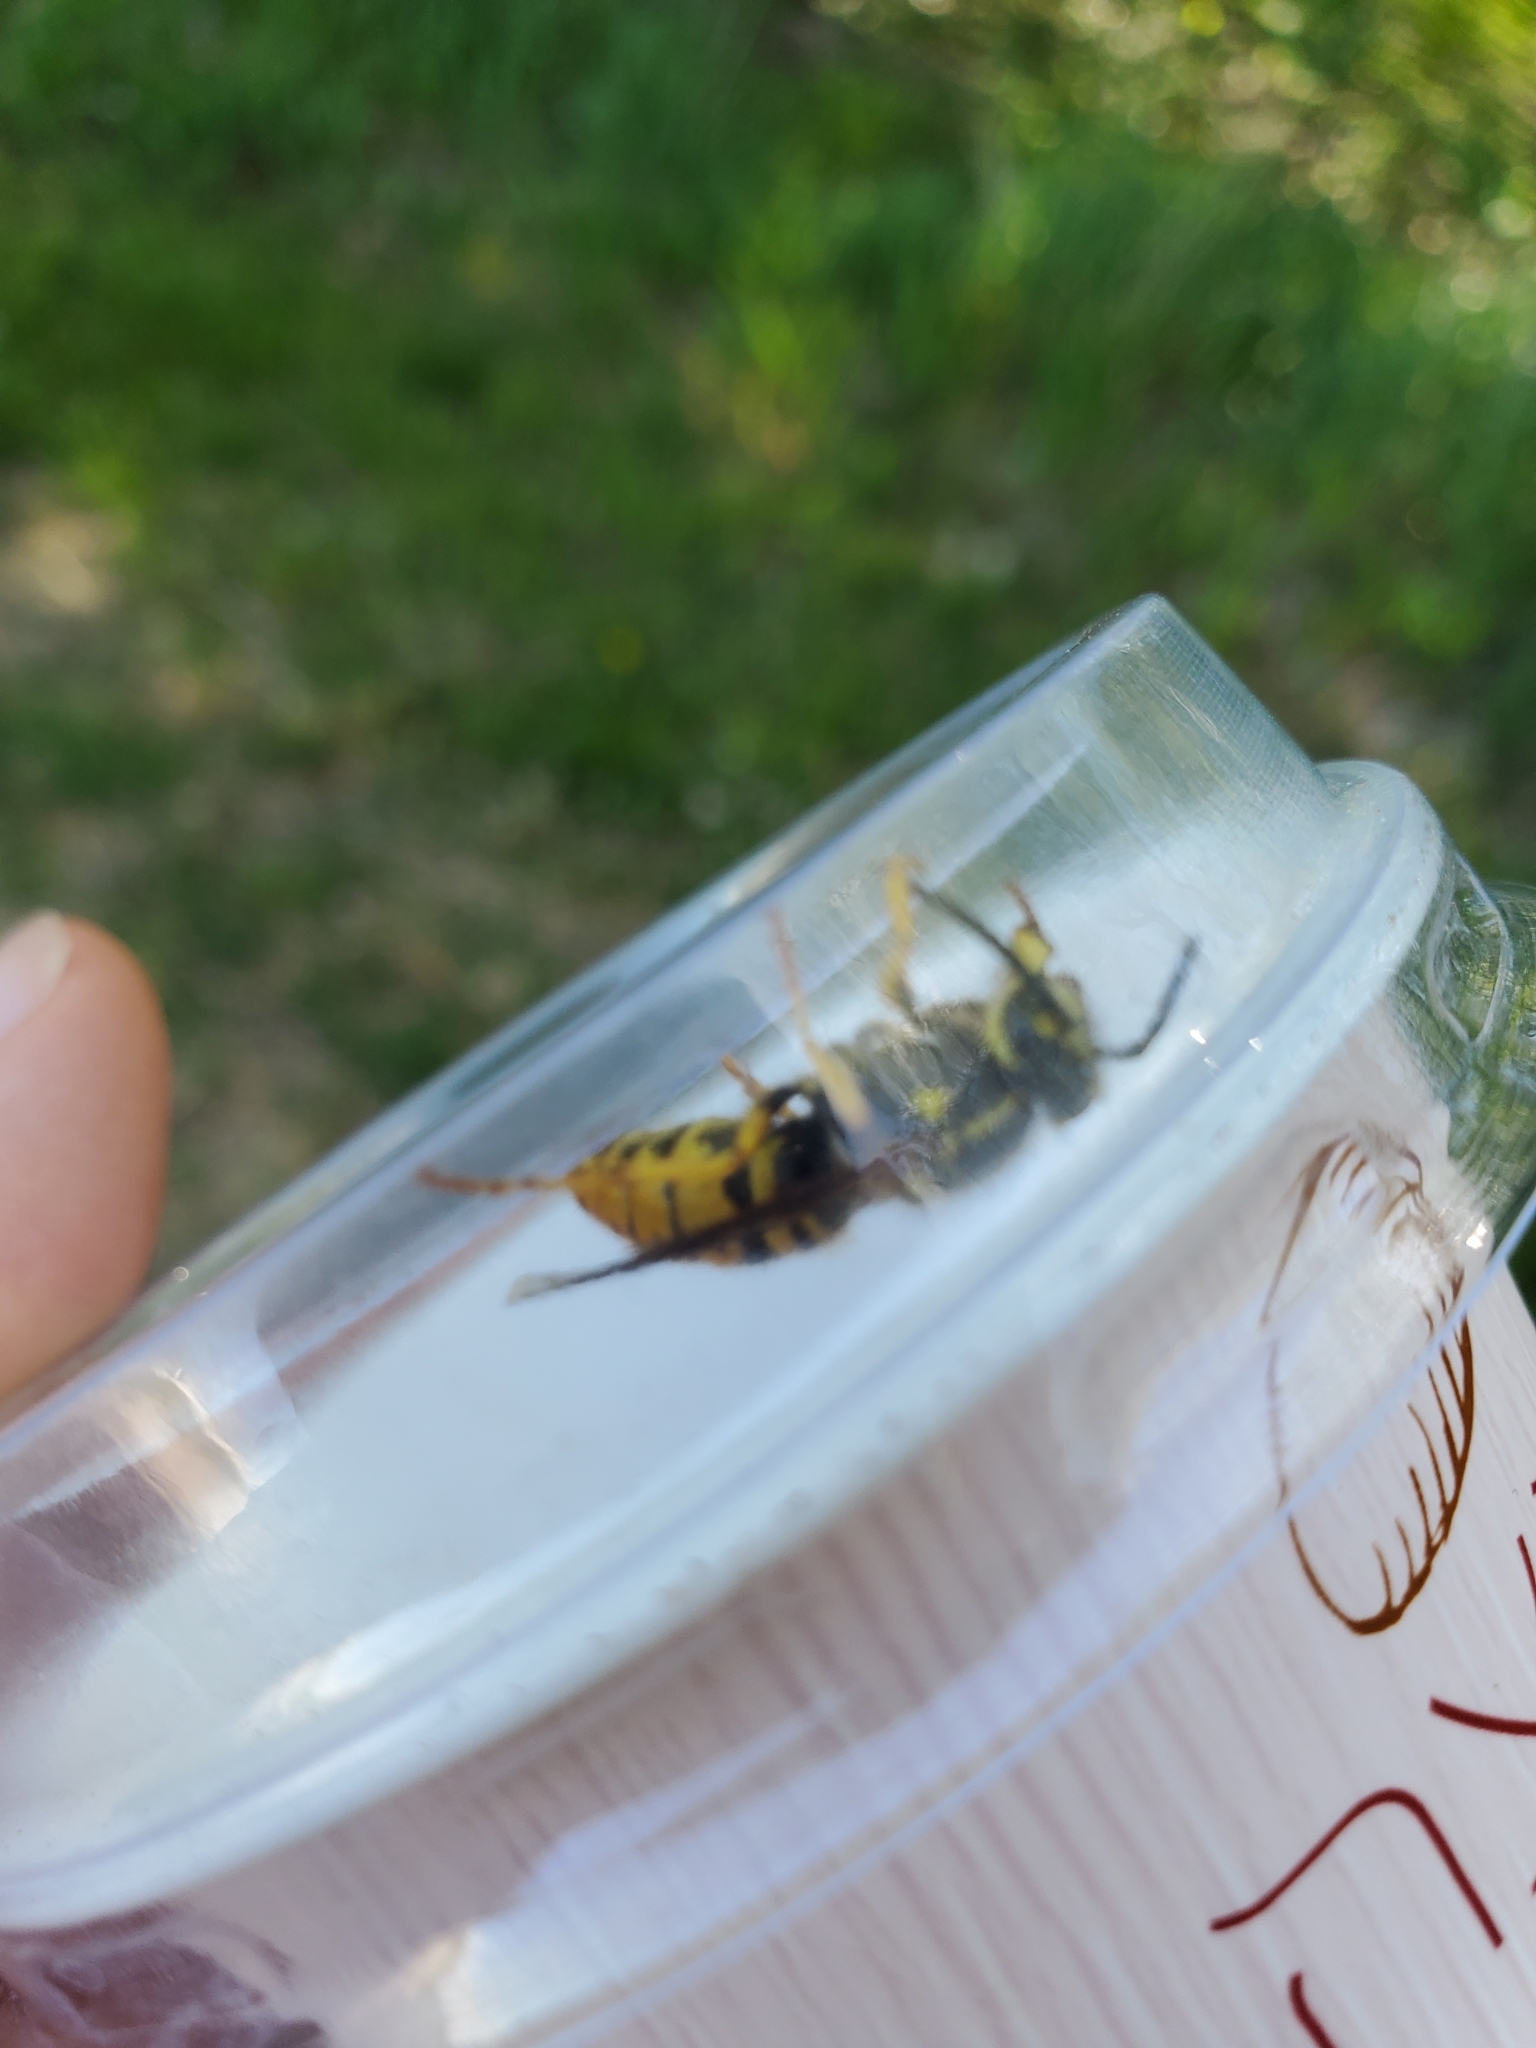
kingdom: Animalia
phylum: Arthropoda
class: Insecta
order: Hymenoptera
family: Vespidae
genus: Vespula
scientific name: Vespula maculifrons
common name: Eastern yellowjacket
